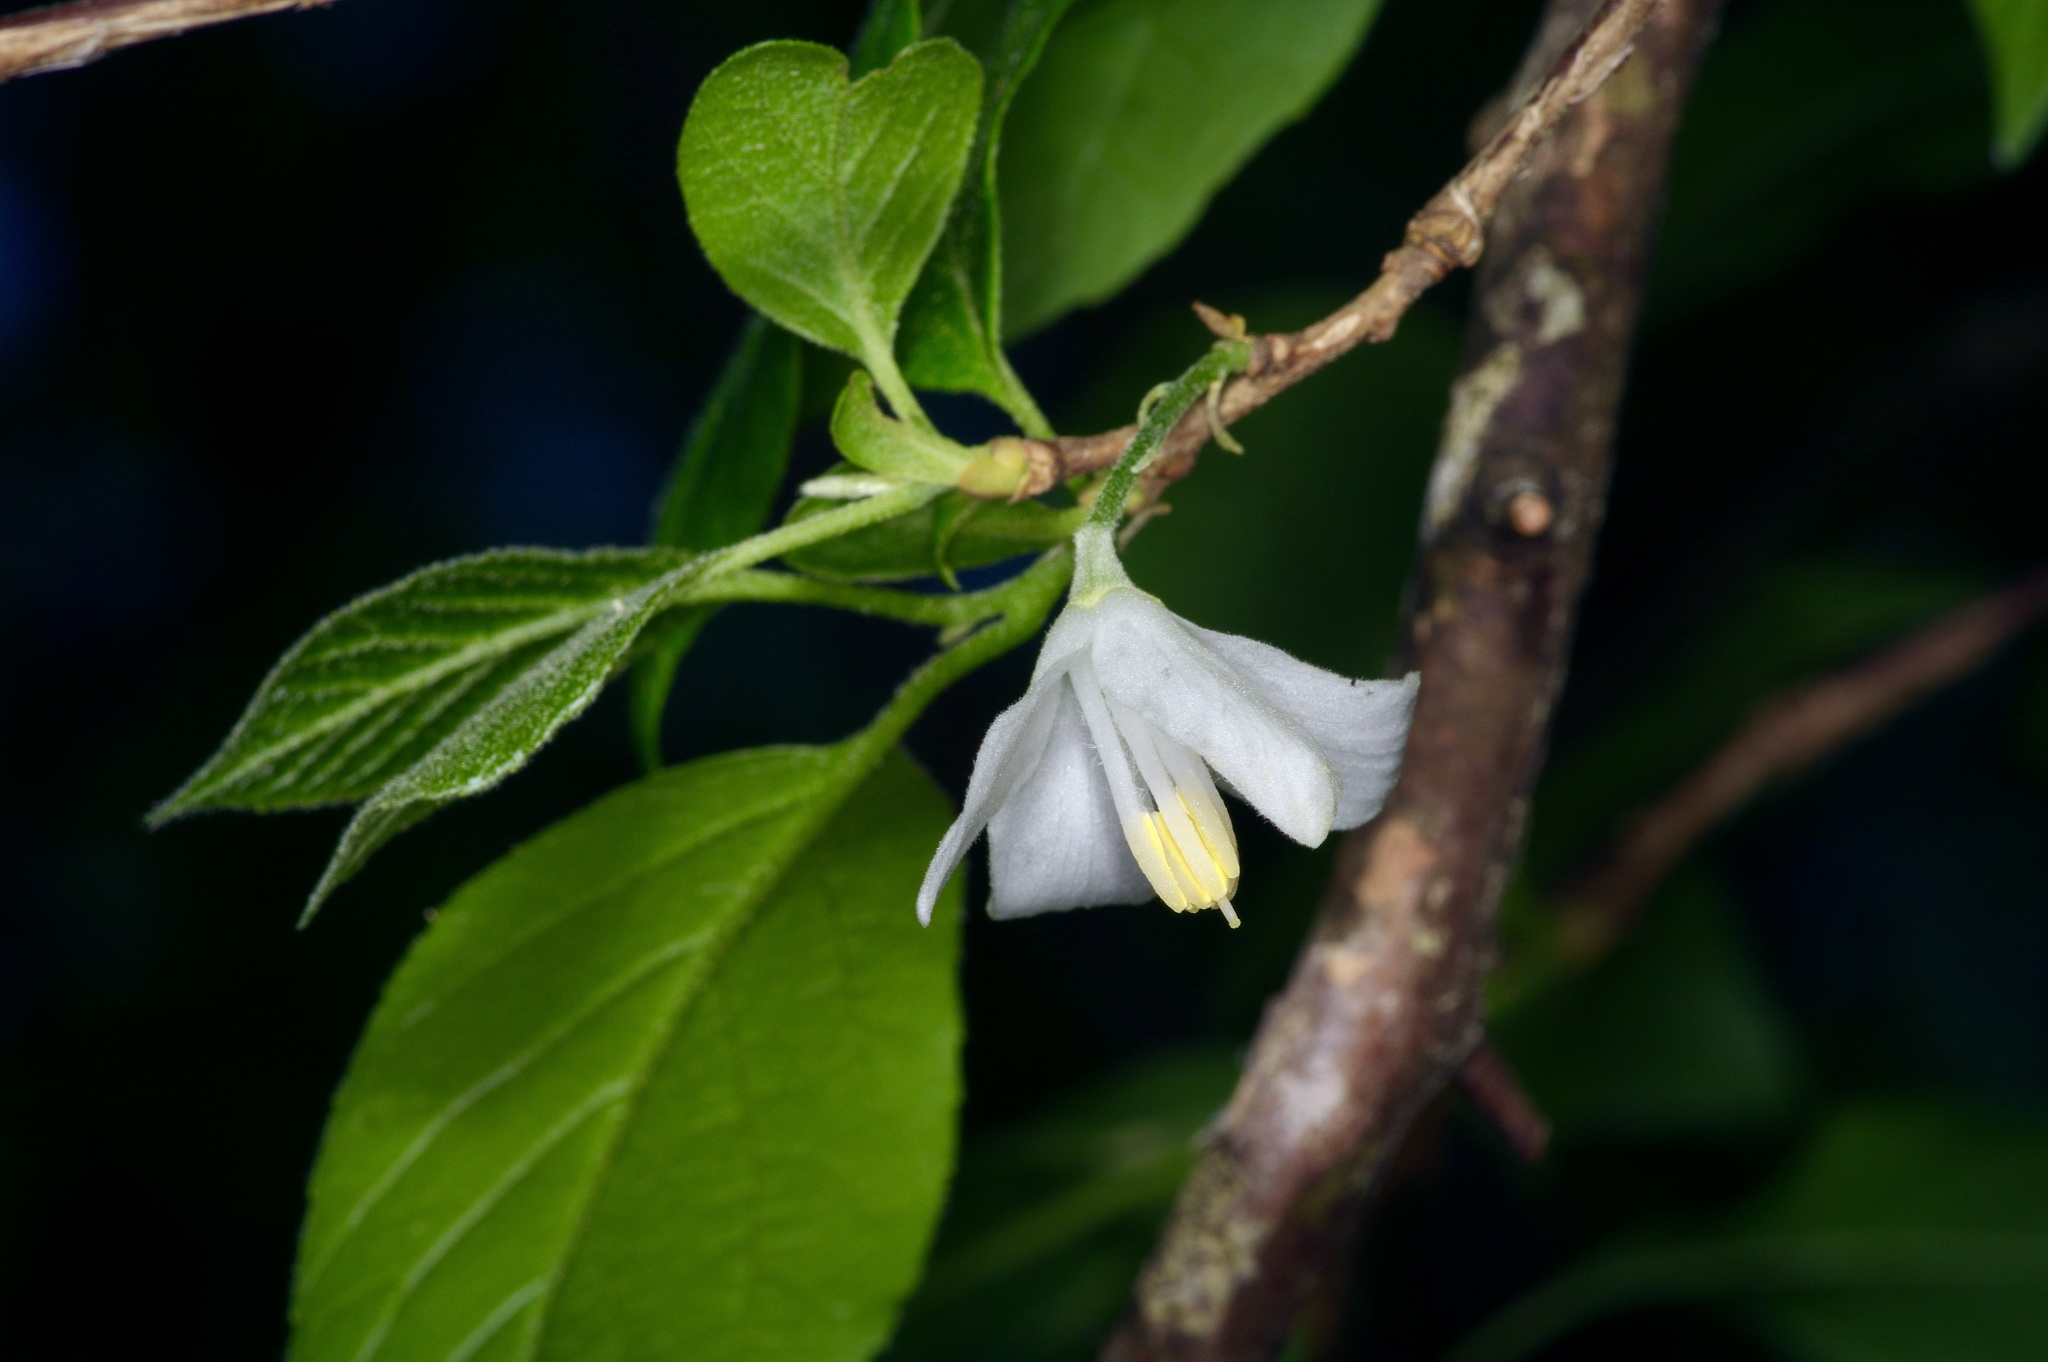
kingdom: Plantae
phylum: Tracheophyta
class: Magnoliopsida
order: Ericales
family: Styracaceae
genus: Halesia
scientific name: Halesia diptera
